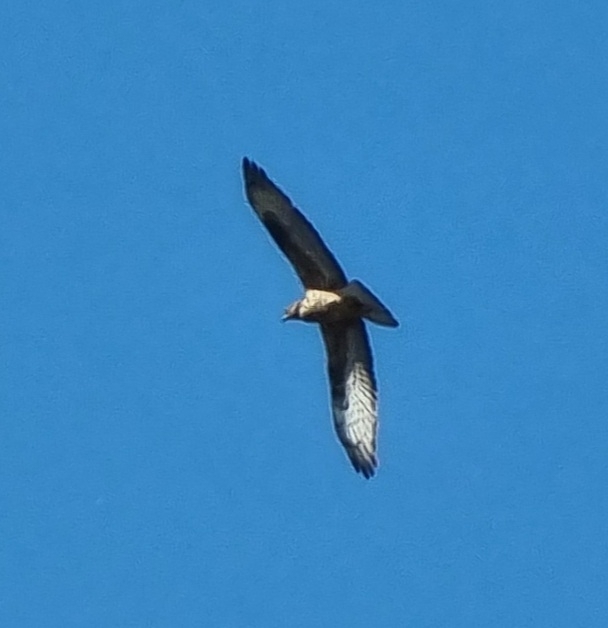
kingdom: Animalia
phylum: Chordata
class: Aves
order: Accipitriformes
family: Accipitridae
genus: Pernis
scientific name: Pernis apivorus
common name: European honey buzzard
